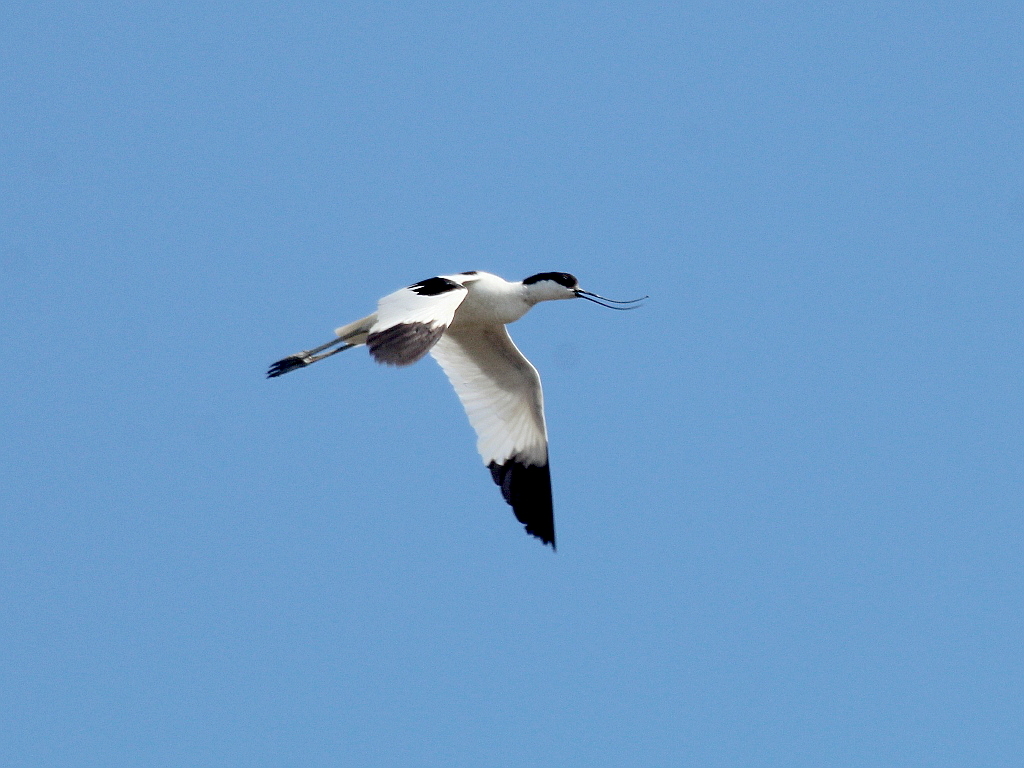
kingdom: Animalia
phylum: Chordata
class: Aves
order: Charadriiformes
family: Recurvirostridae
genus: Recurvirostra
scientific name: Recurvirostra avosetta
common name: Pied avocet
